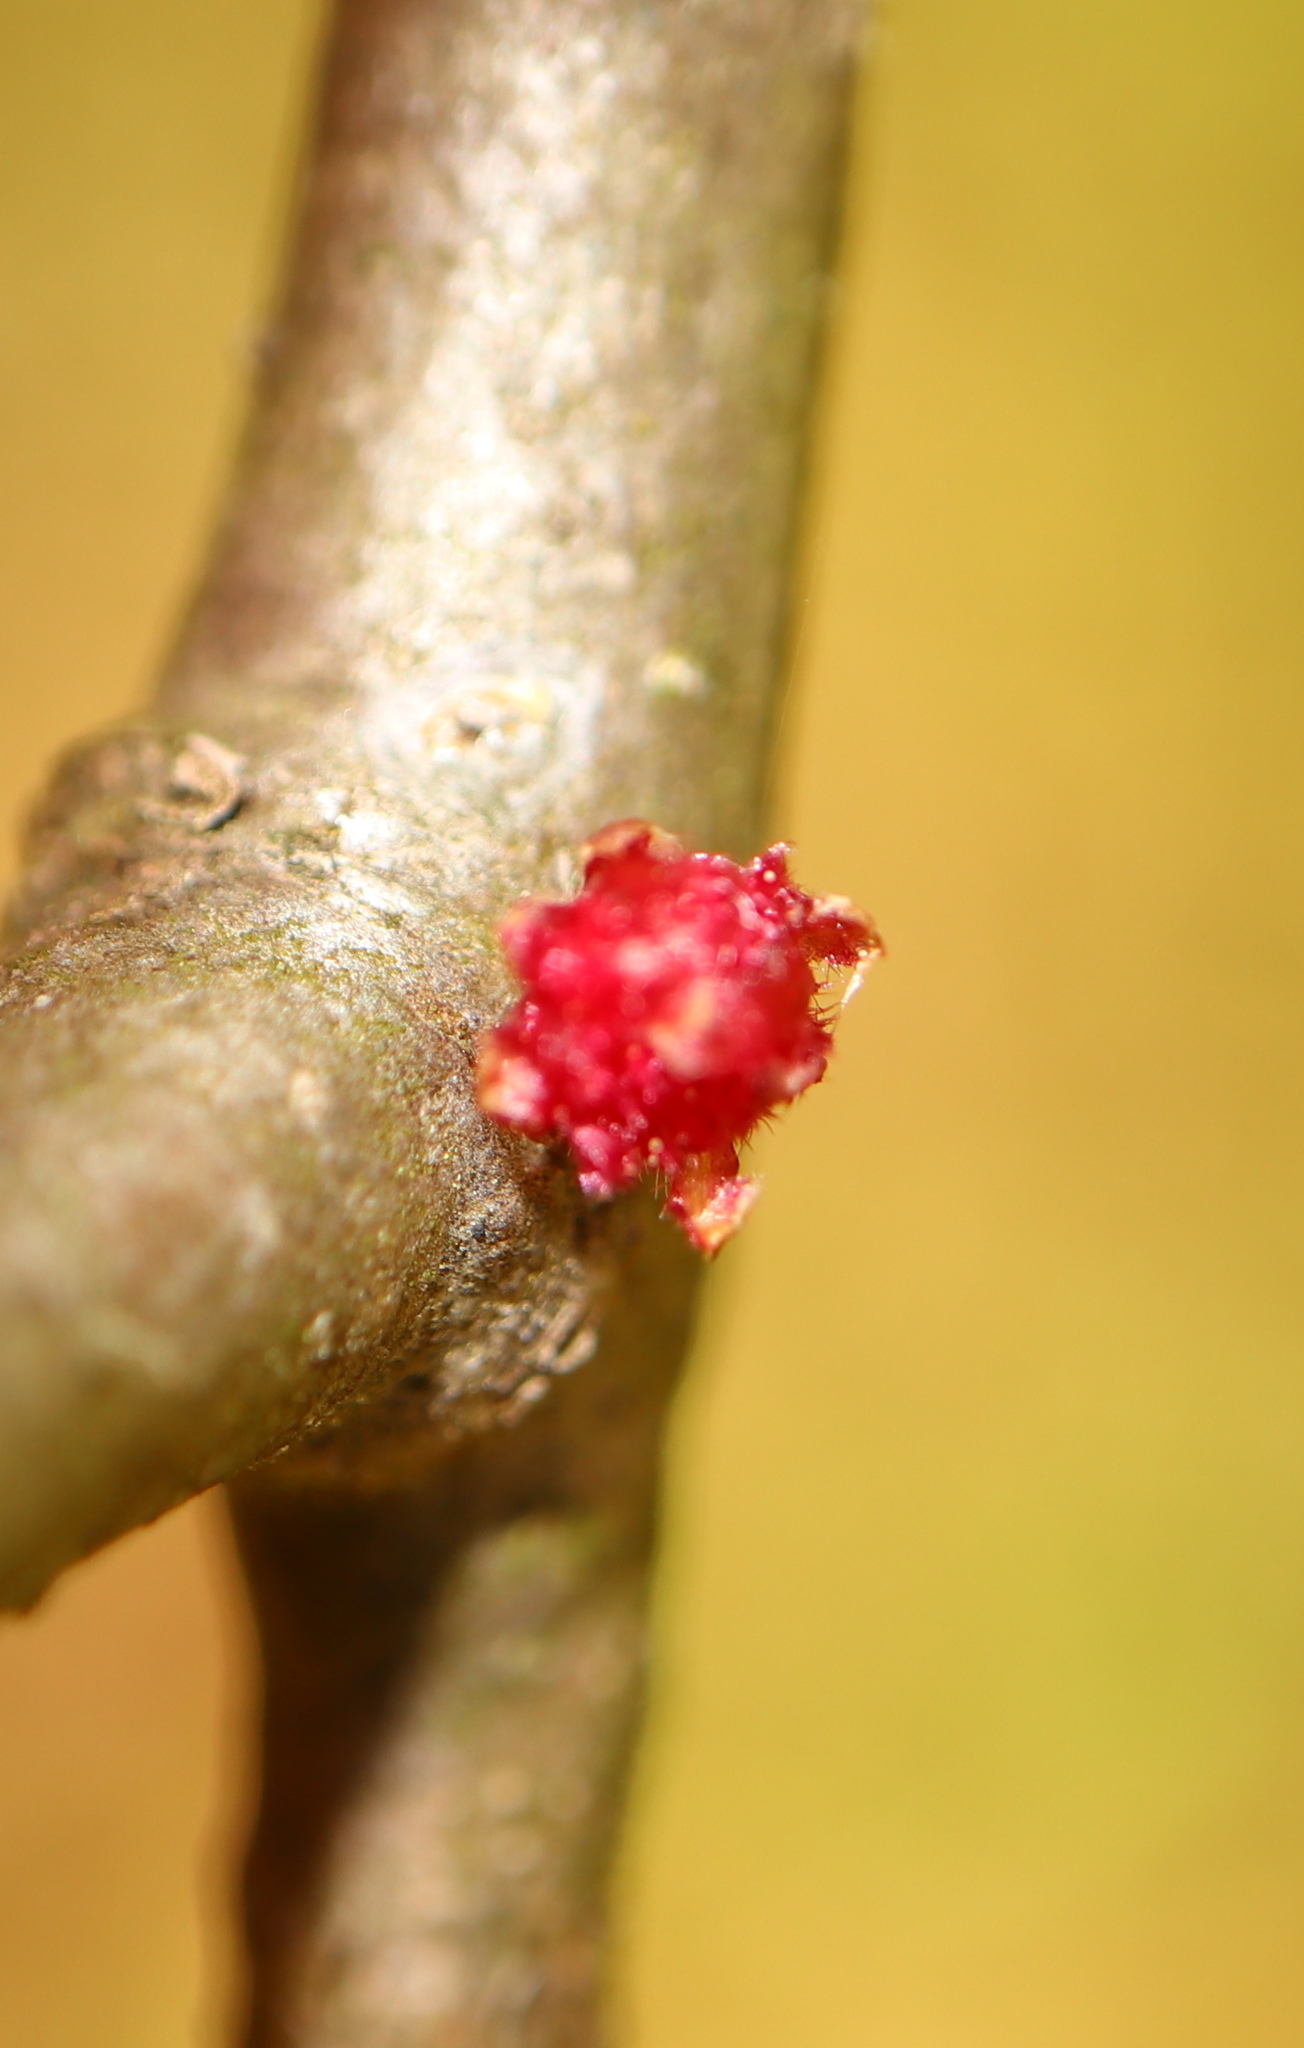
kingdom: Animalia
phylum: Arthropoda
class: Insecta
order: Hymenoptera
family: Cynipidae
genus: Dryocosmus
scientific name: Dryocosmus
